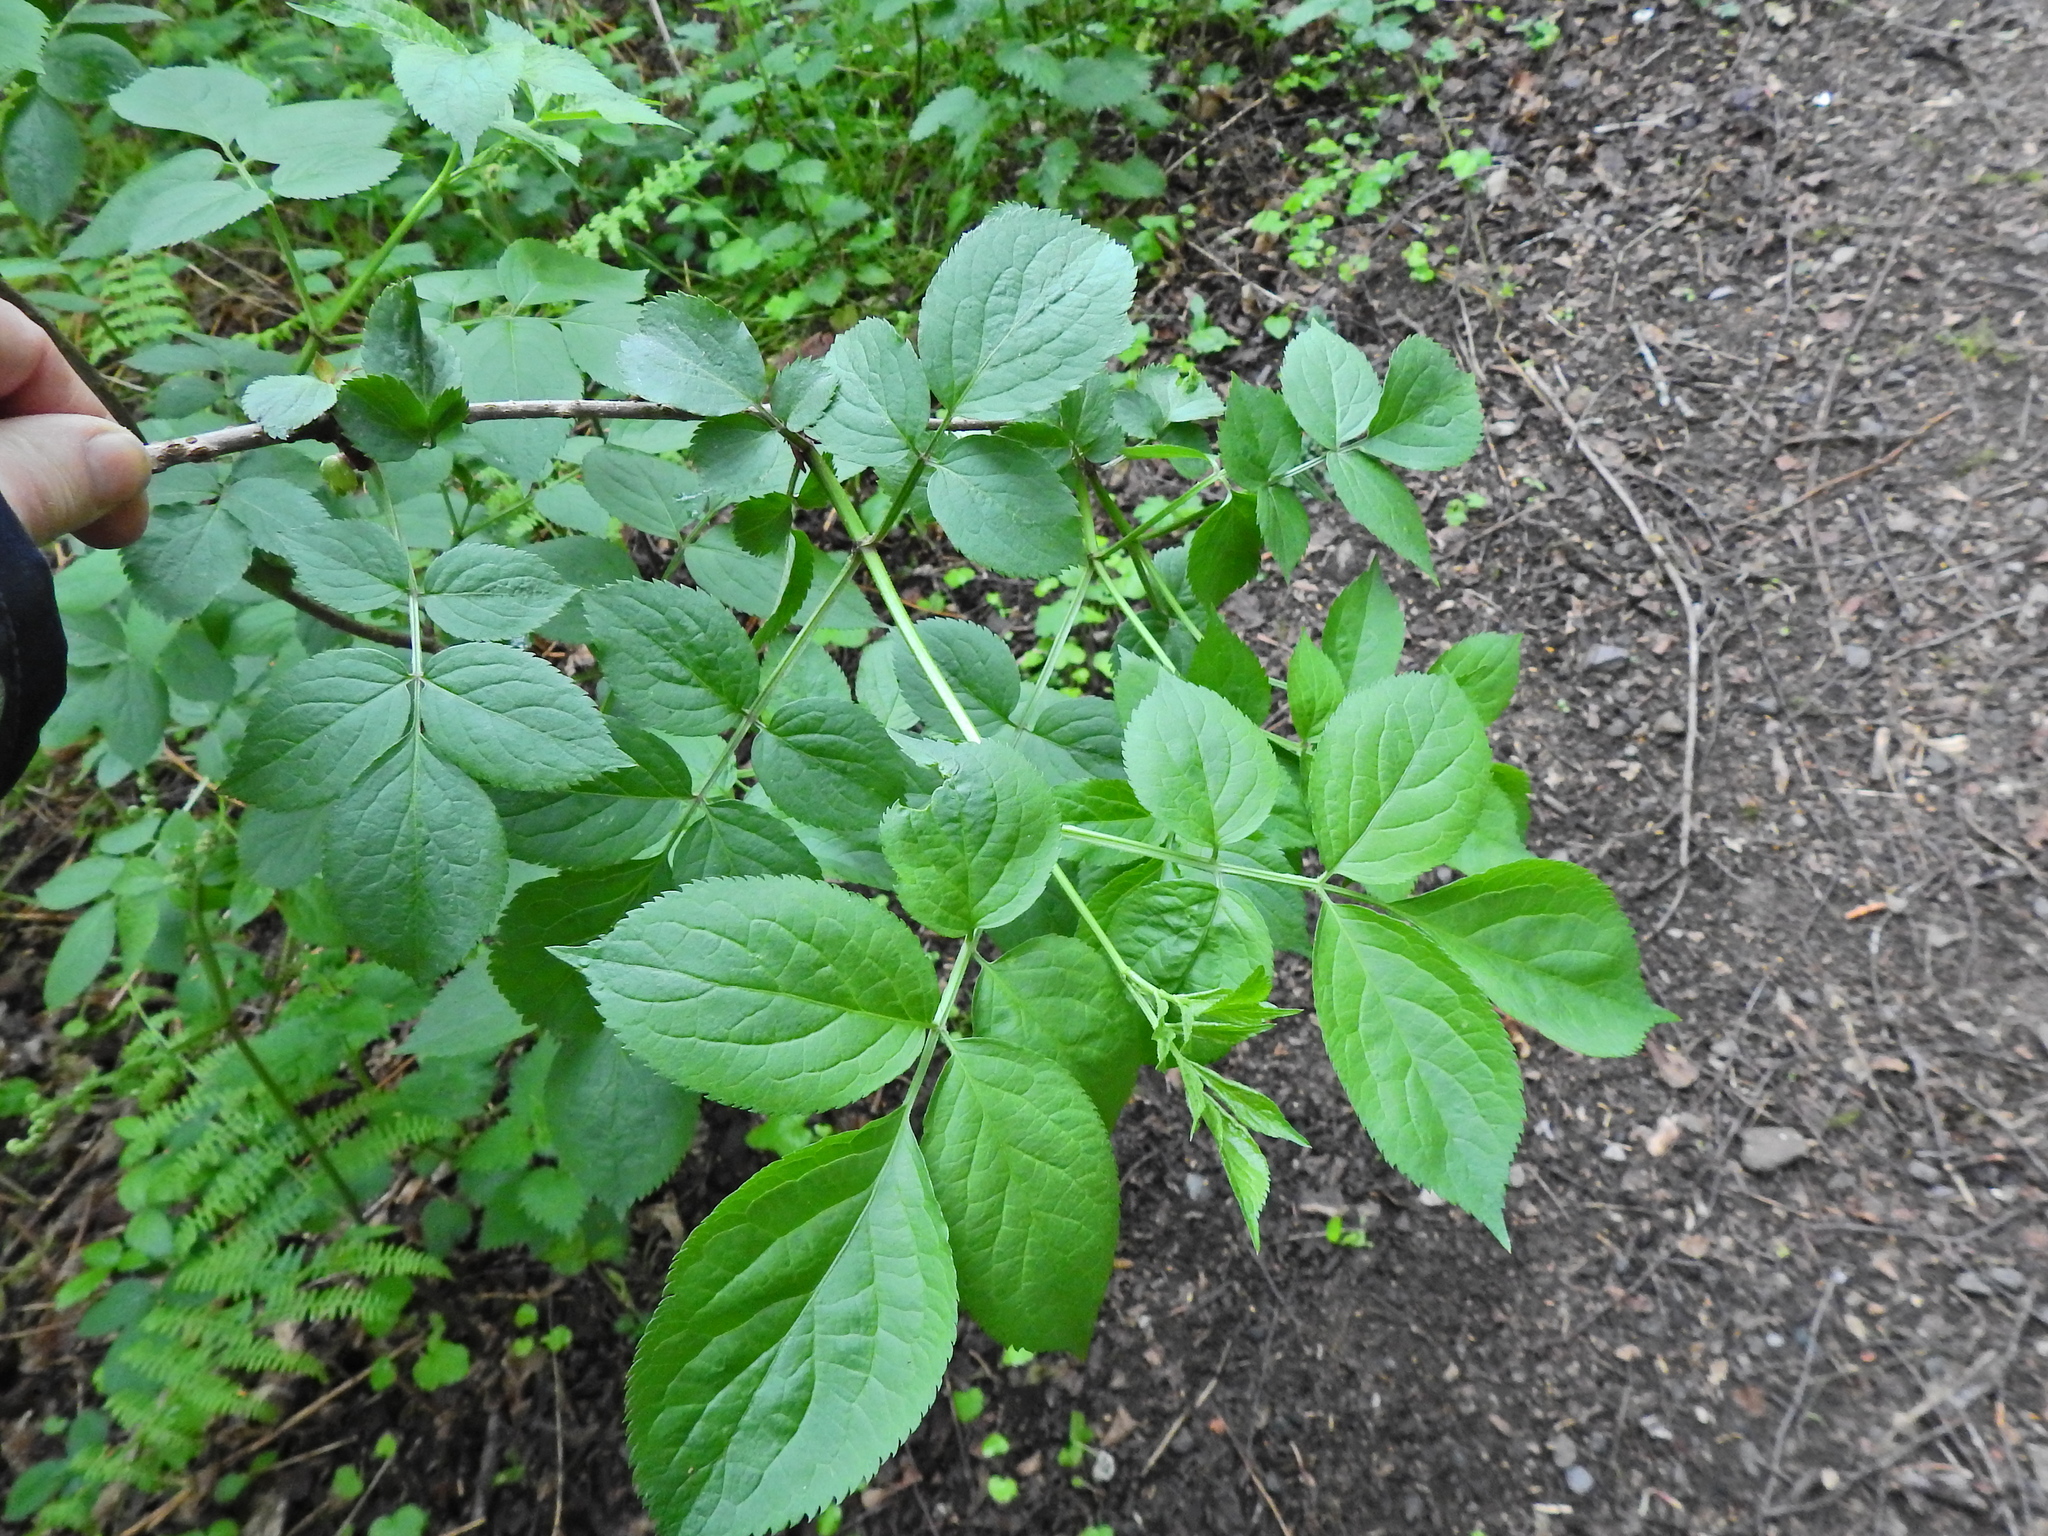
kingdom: Plantae
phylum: Tracheophyta
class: Magnoliopsida
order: Dipsacales
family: Viburnaceae
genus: Sambucus
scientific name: Sambucus nigra
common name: Elder
